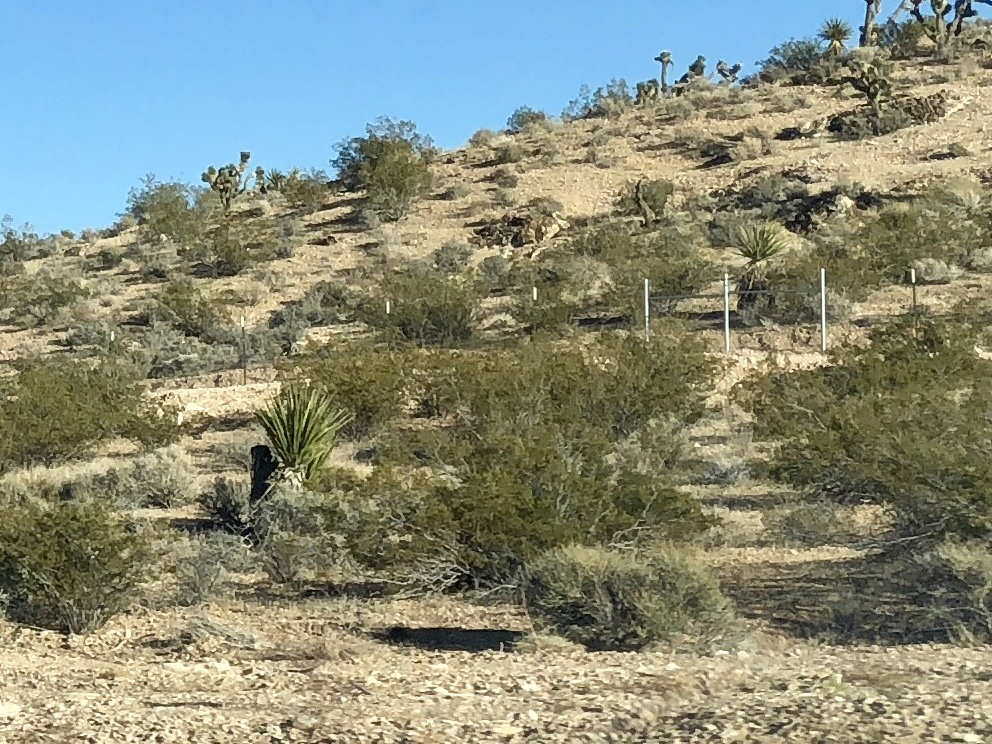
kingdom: Plantae
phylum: Tracheophyta
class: Magnoliopsida
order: Zygophyllales
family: Zygophyllaceae
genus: Larrea
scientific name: Larrea tridentata
